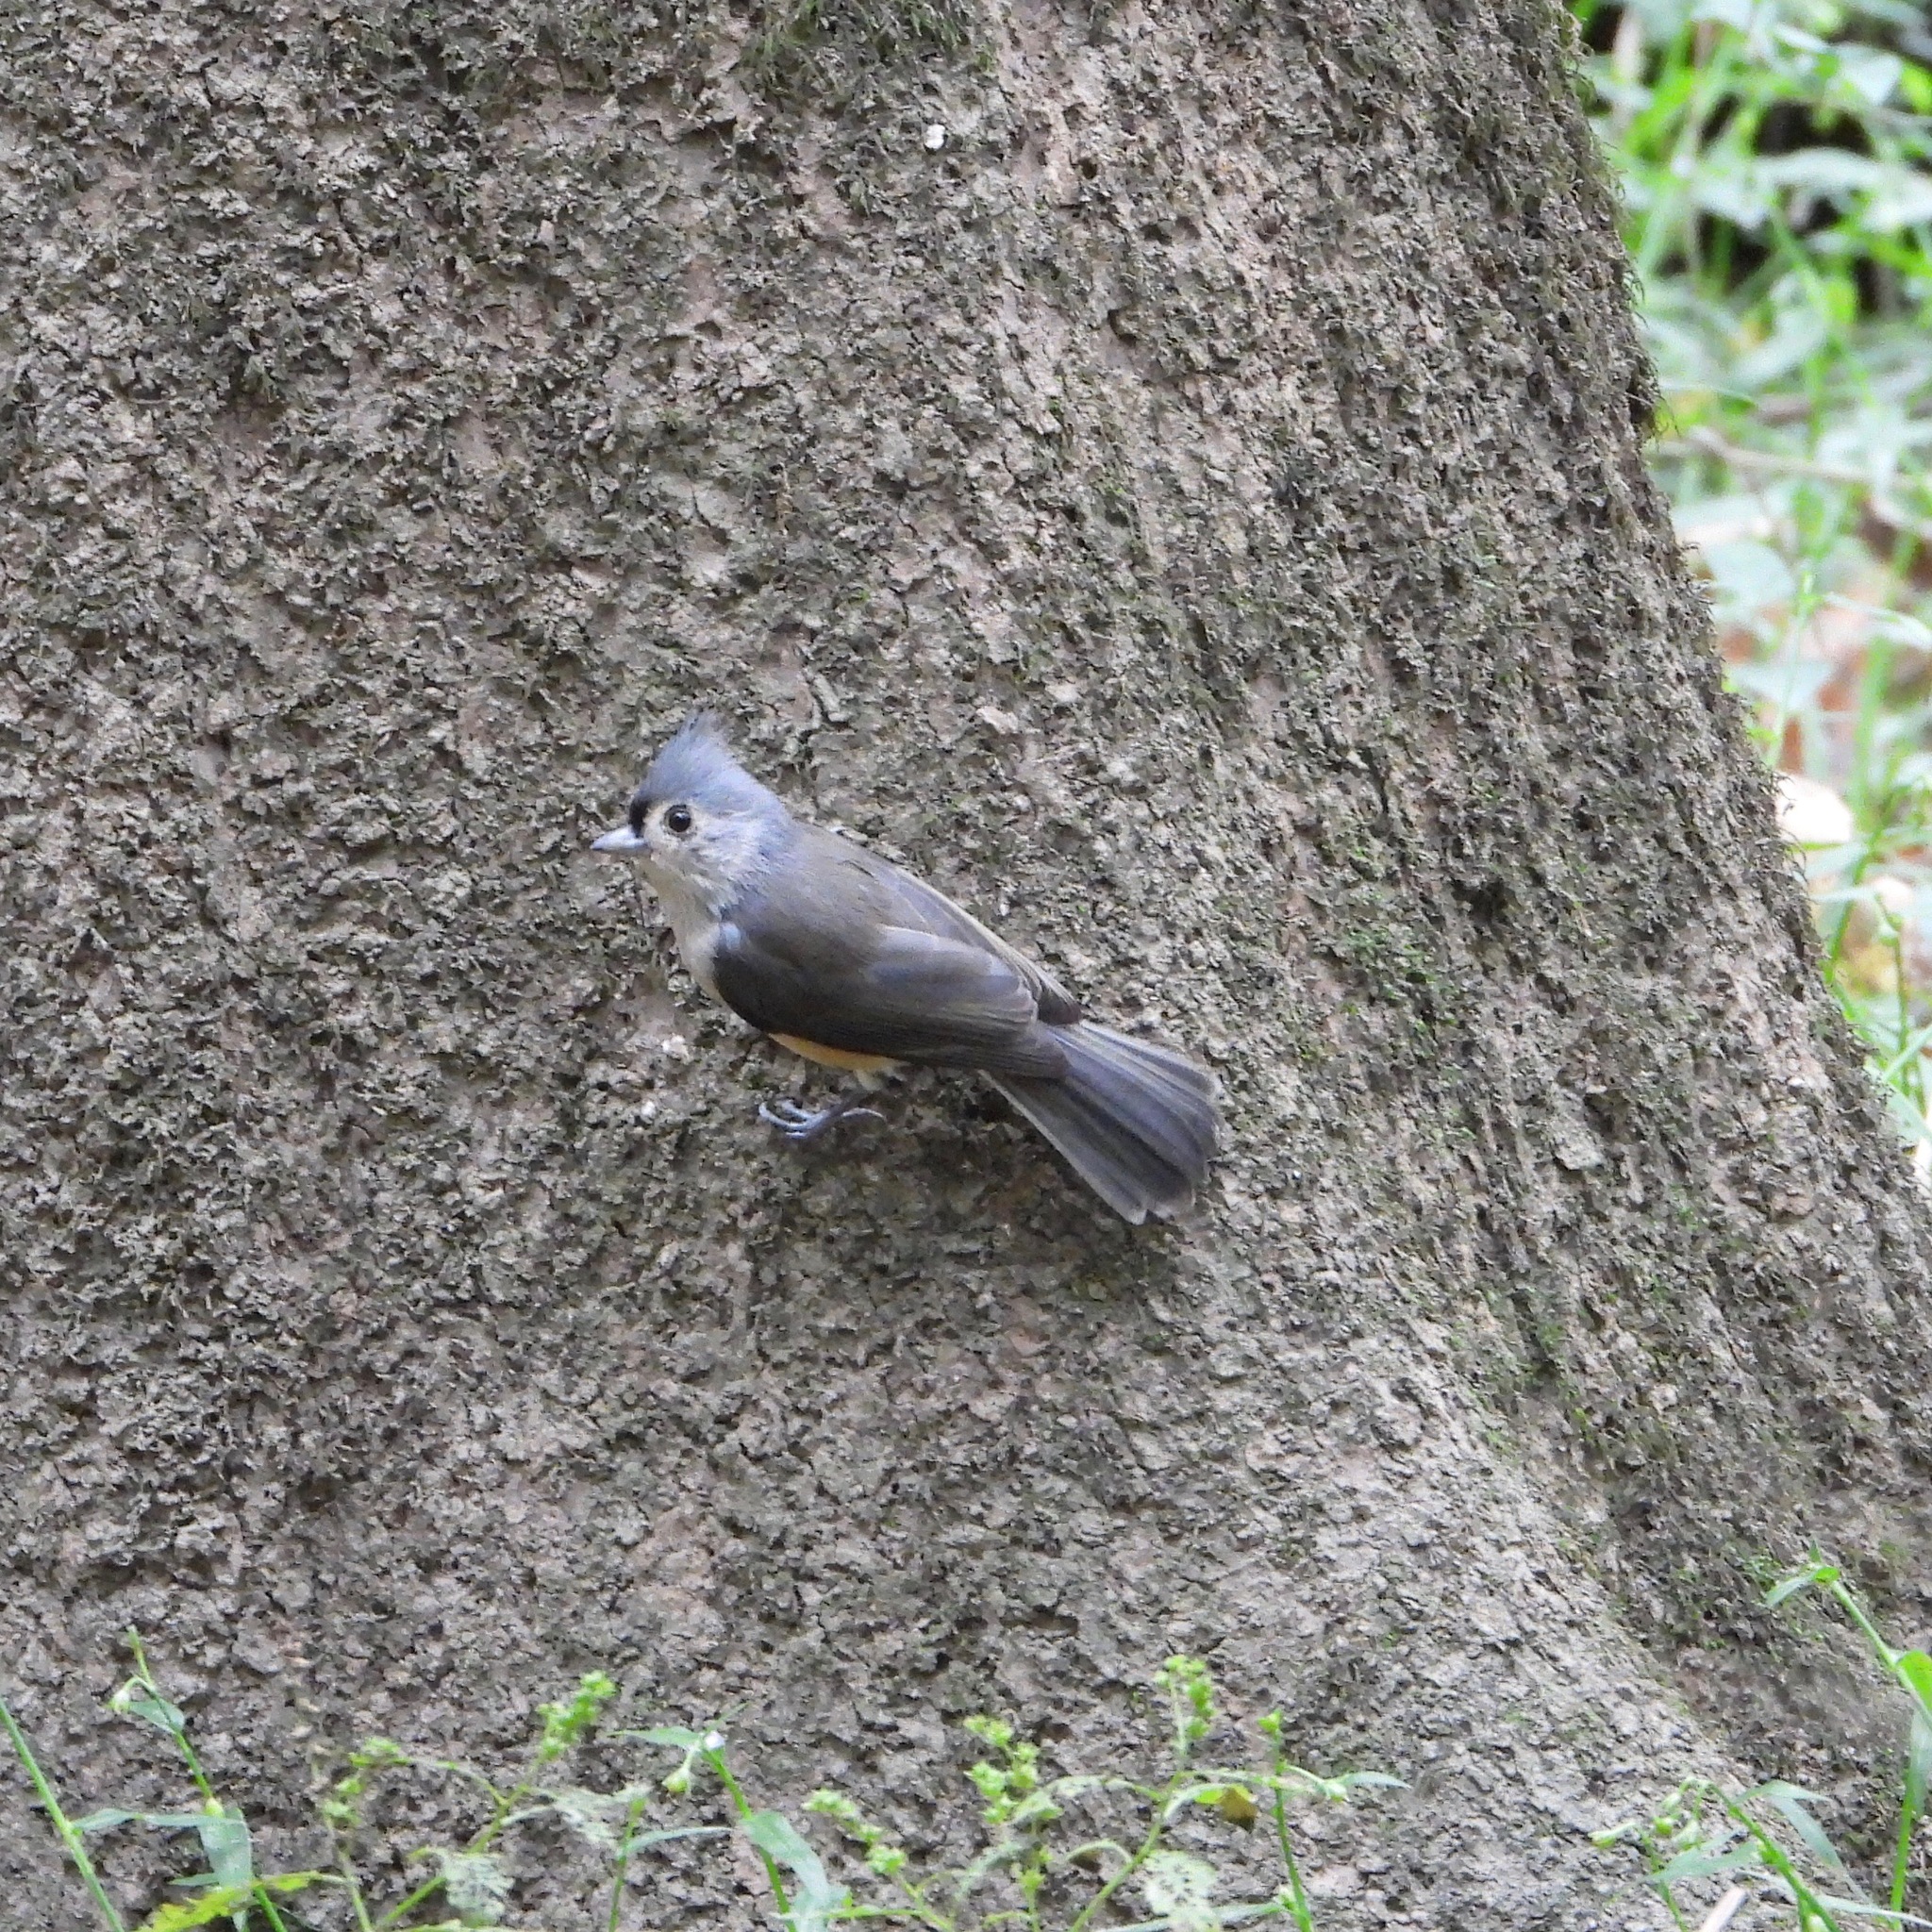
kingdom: Animalia
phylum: Chordata
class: Aves
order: Passeriformes
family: Paridae
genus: Baeolophus
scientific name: Baeolophus bicolor
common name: Tufted titmouse
